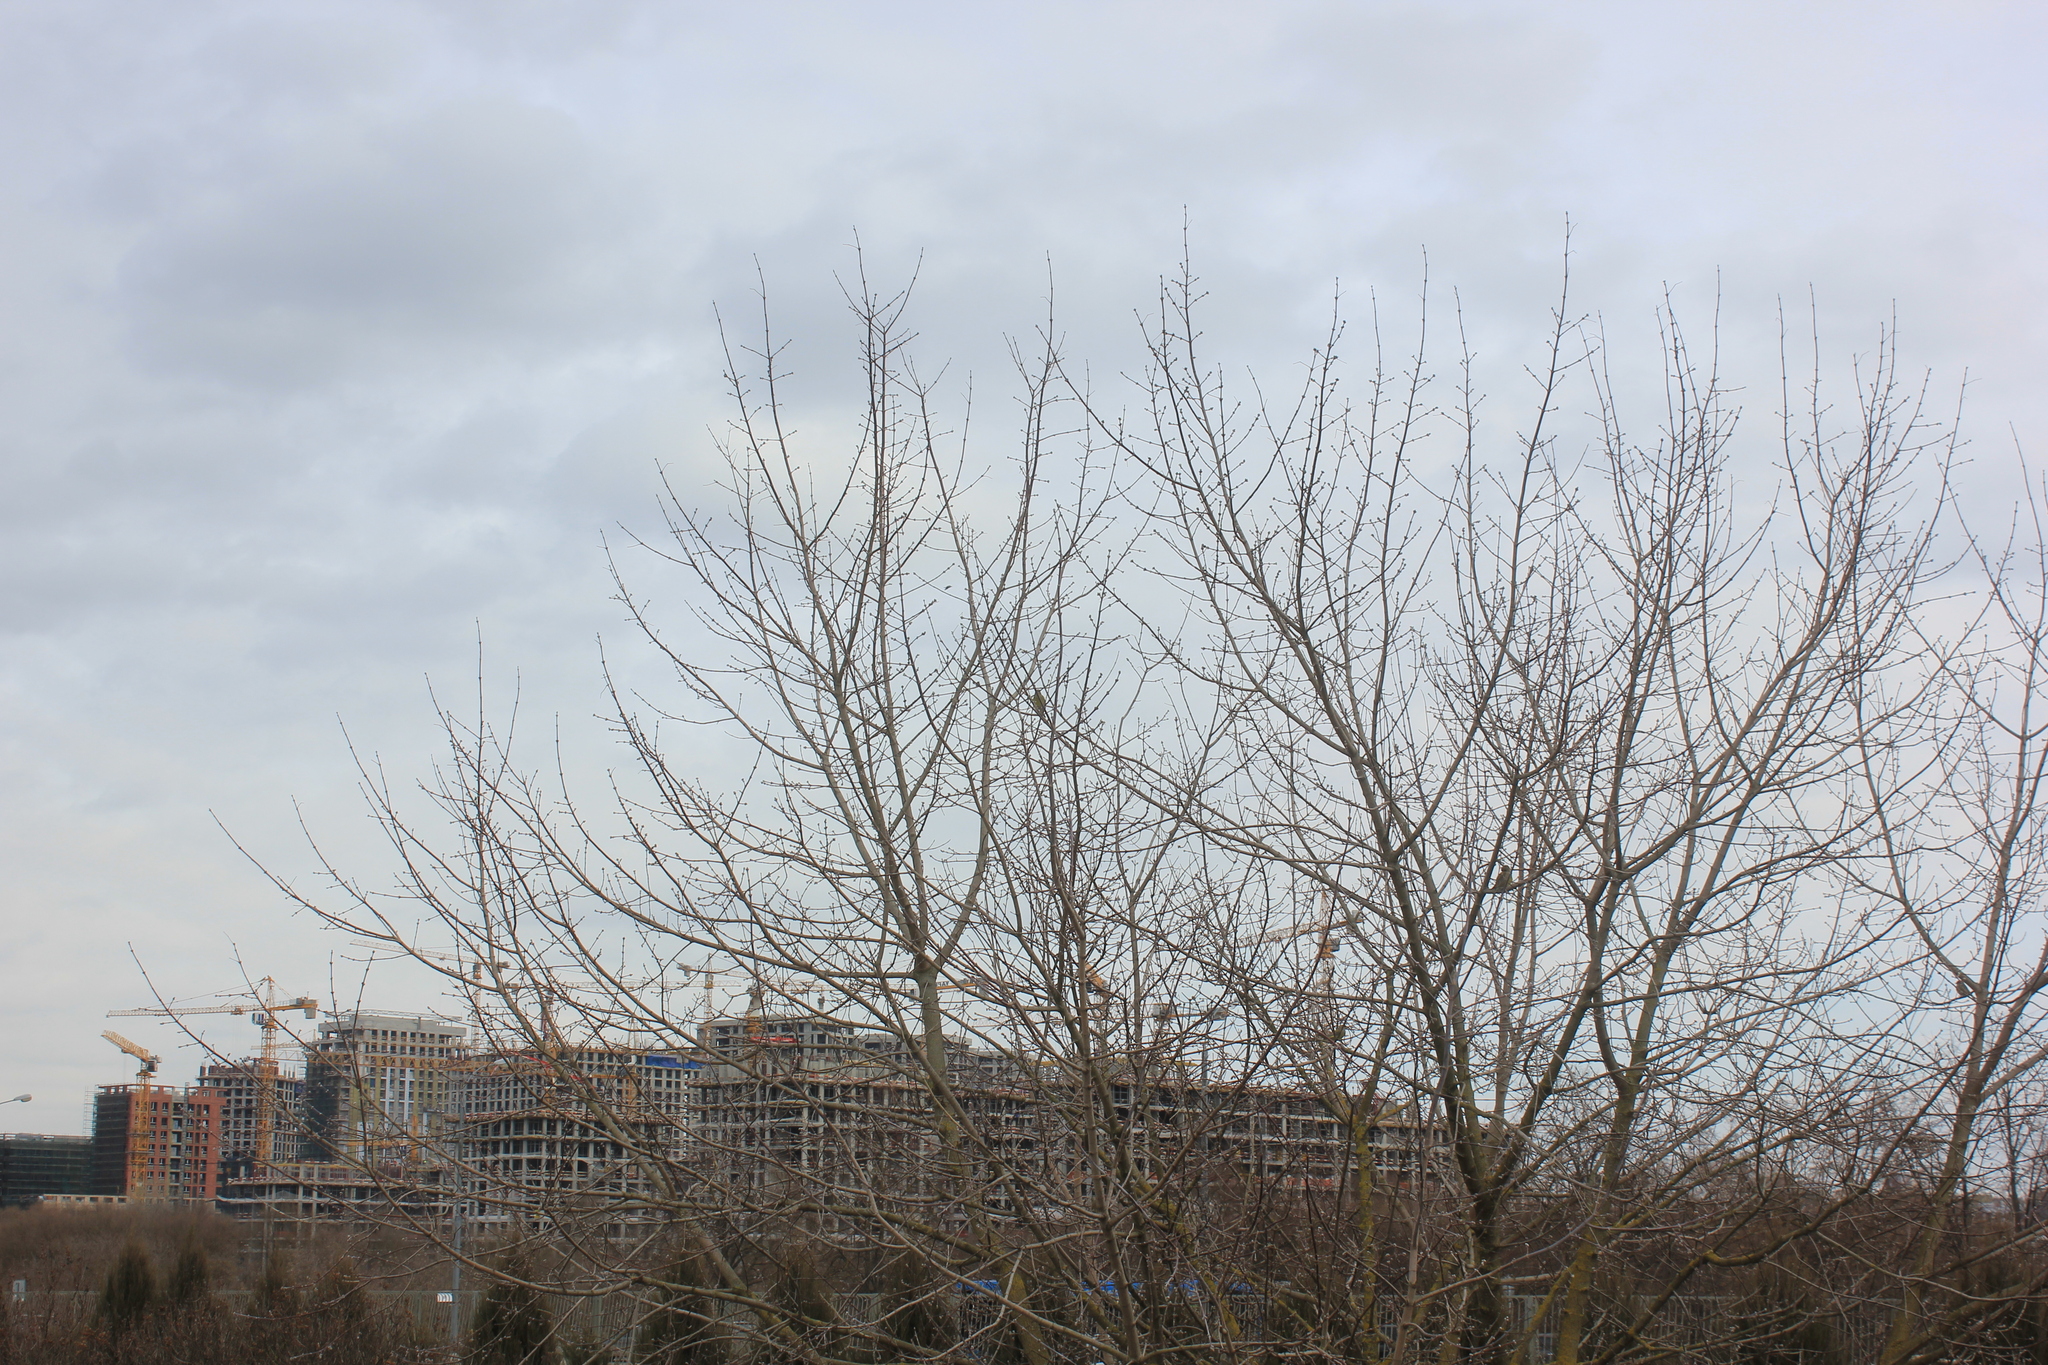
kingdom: Plantae
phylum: Tracheophyta
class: Liliopsida
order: Poales
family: Poaceae
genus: Chloris
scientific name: Chloris chloris
